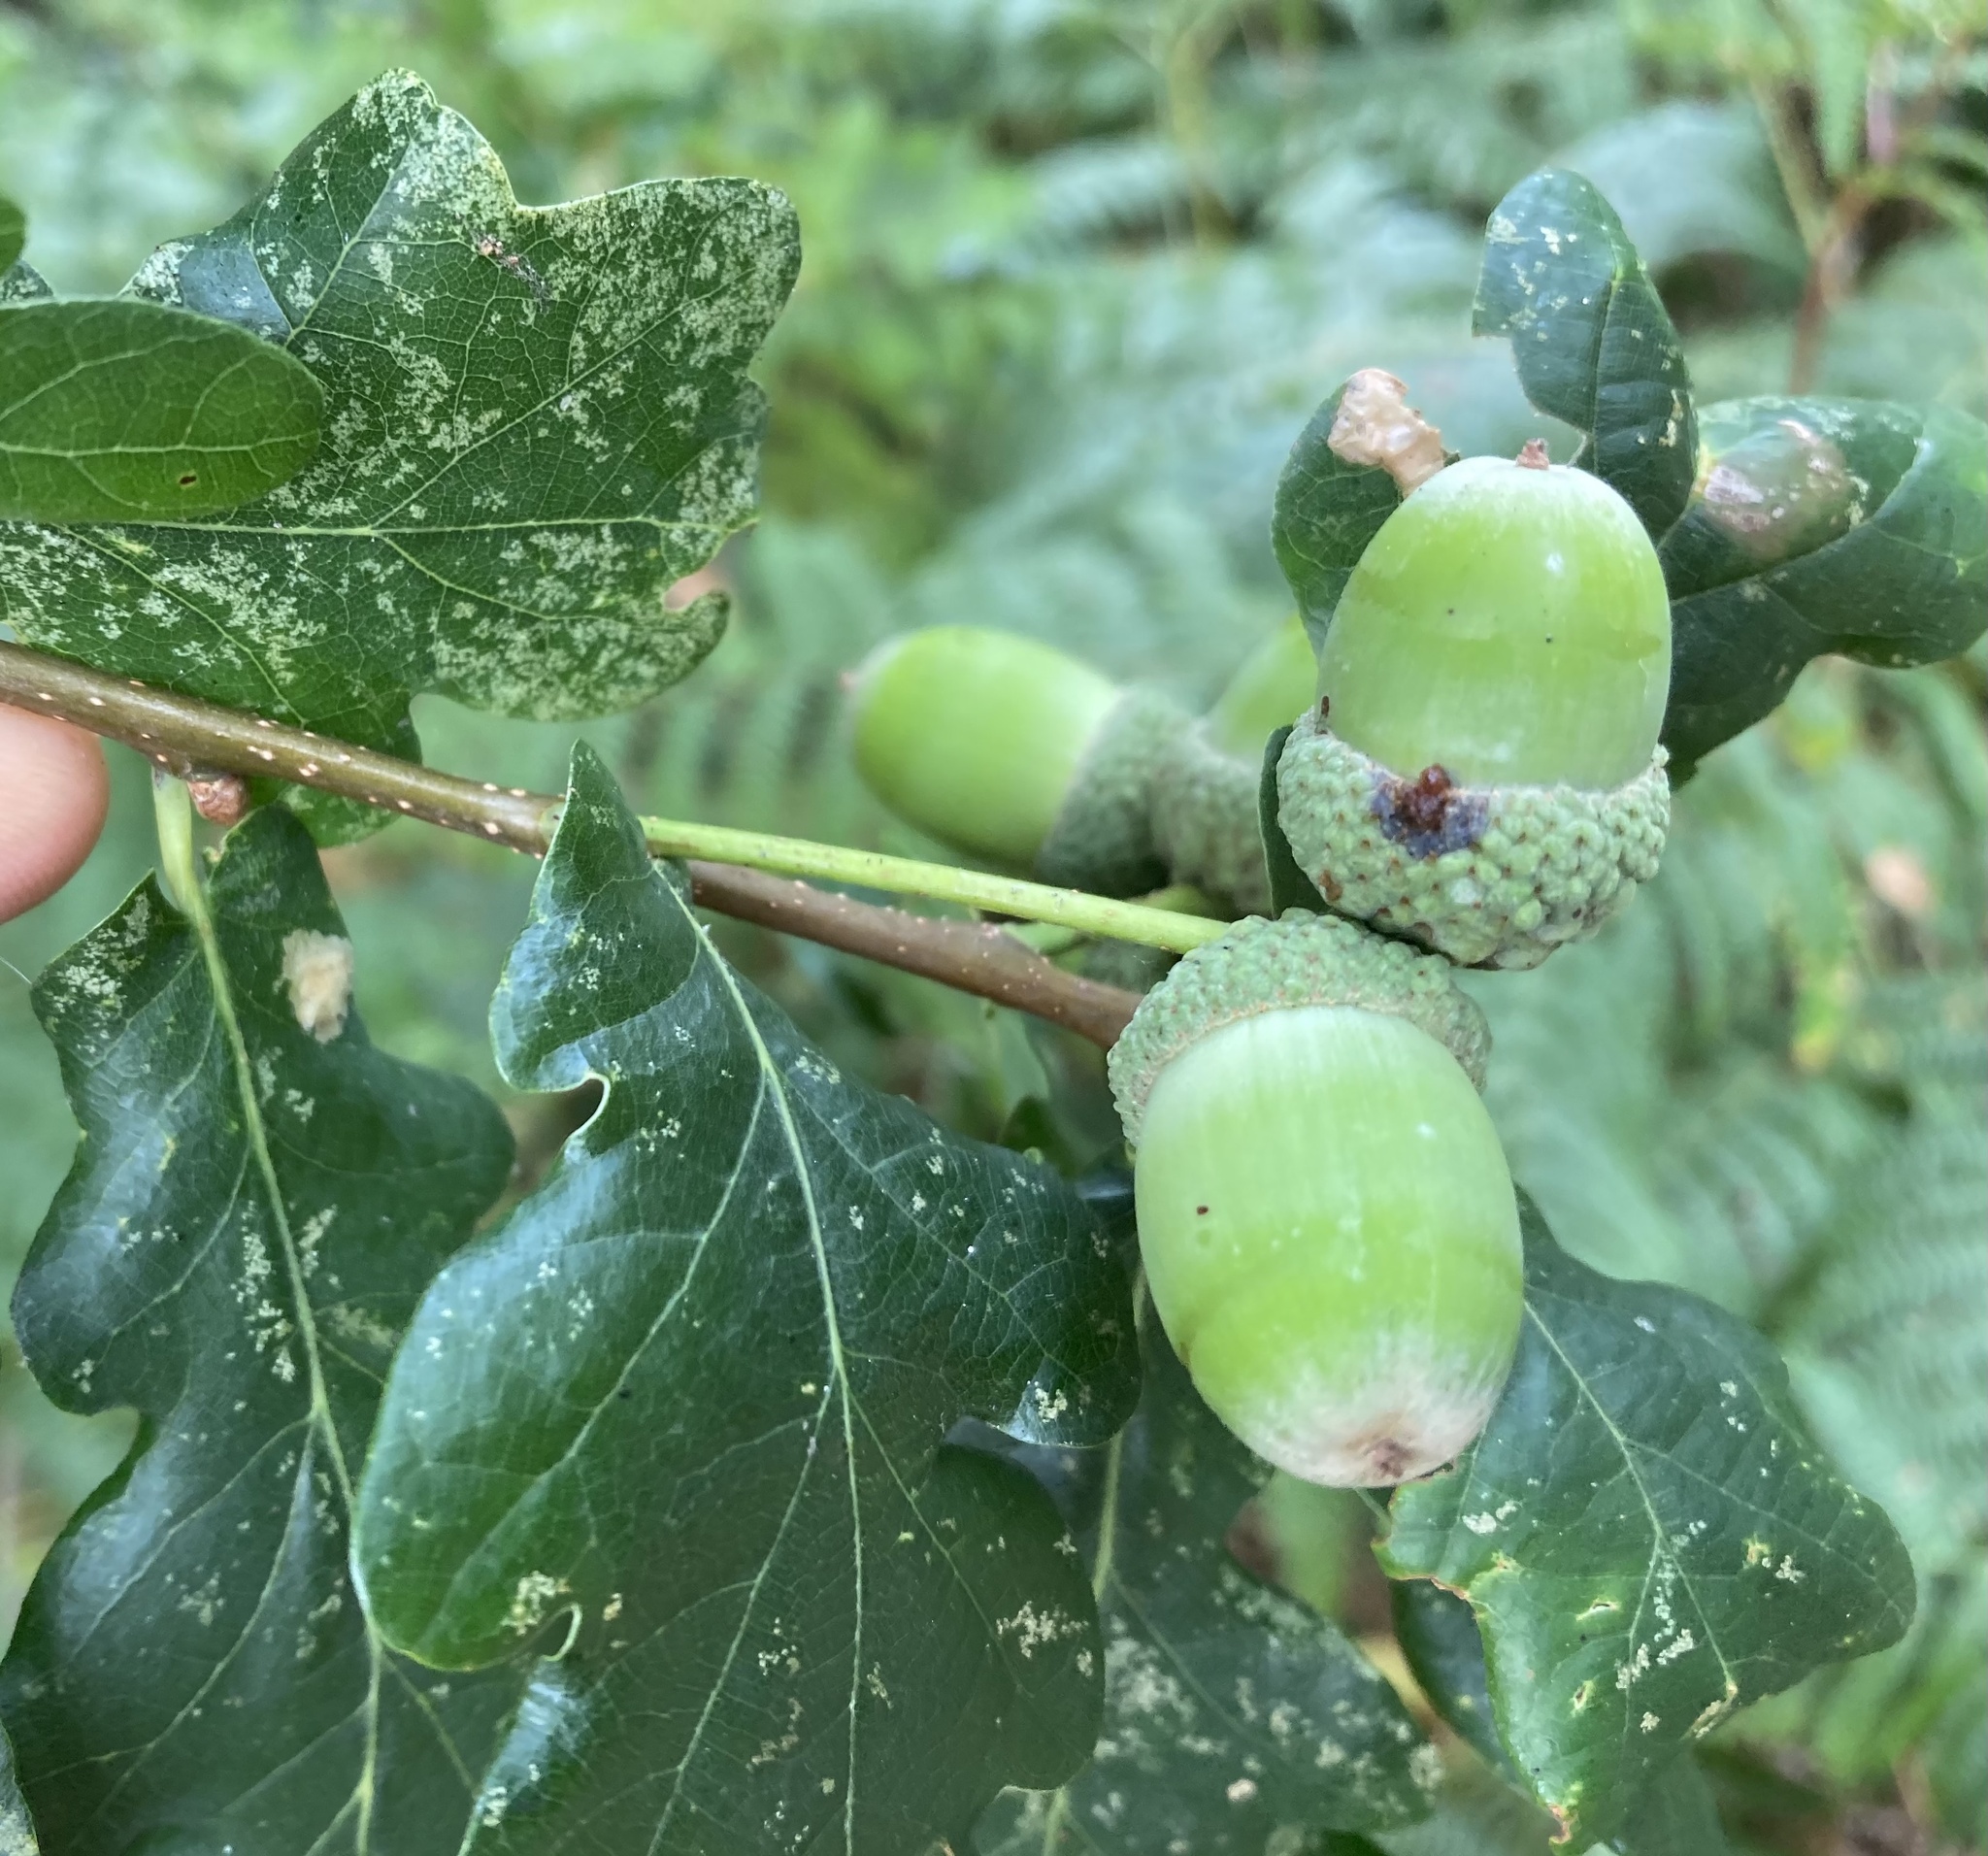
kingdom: Plantae
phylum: Tracheophyta
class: Magnoliopsida
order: Fagales
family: Fagaceae
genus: Quercus
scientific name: Quercus robur
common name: Pedunculate oak
